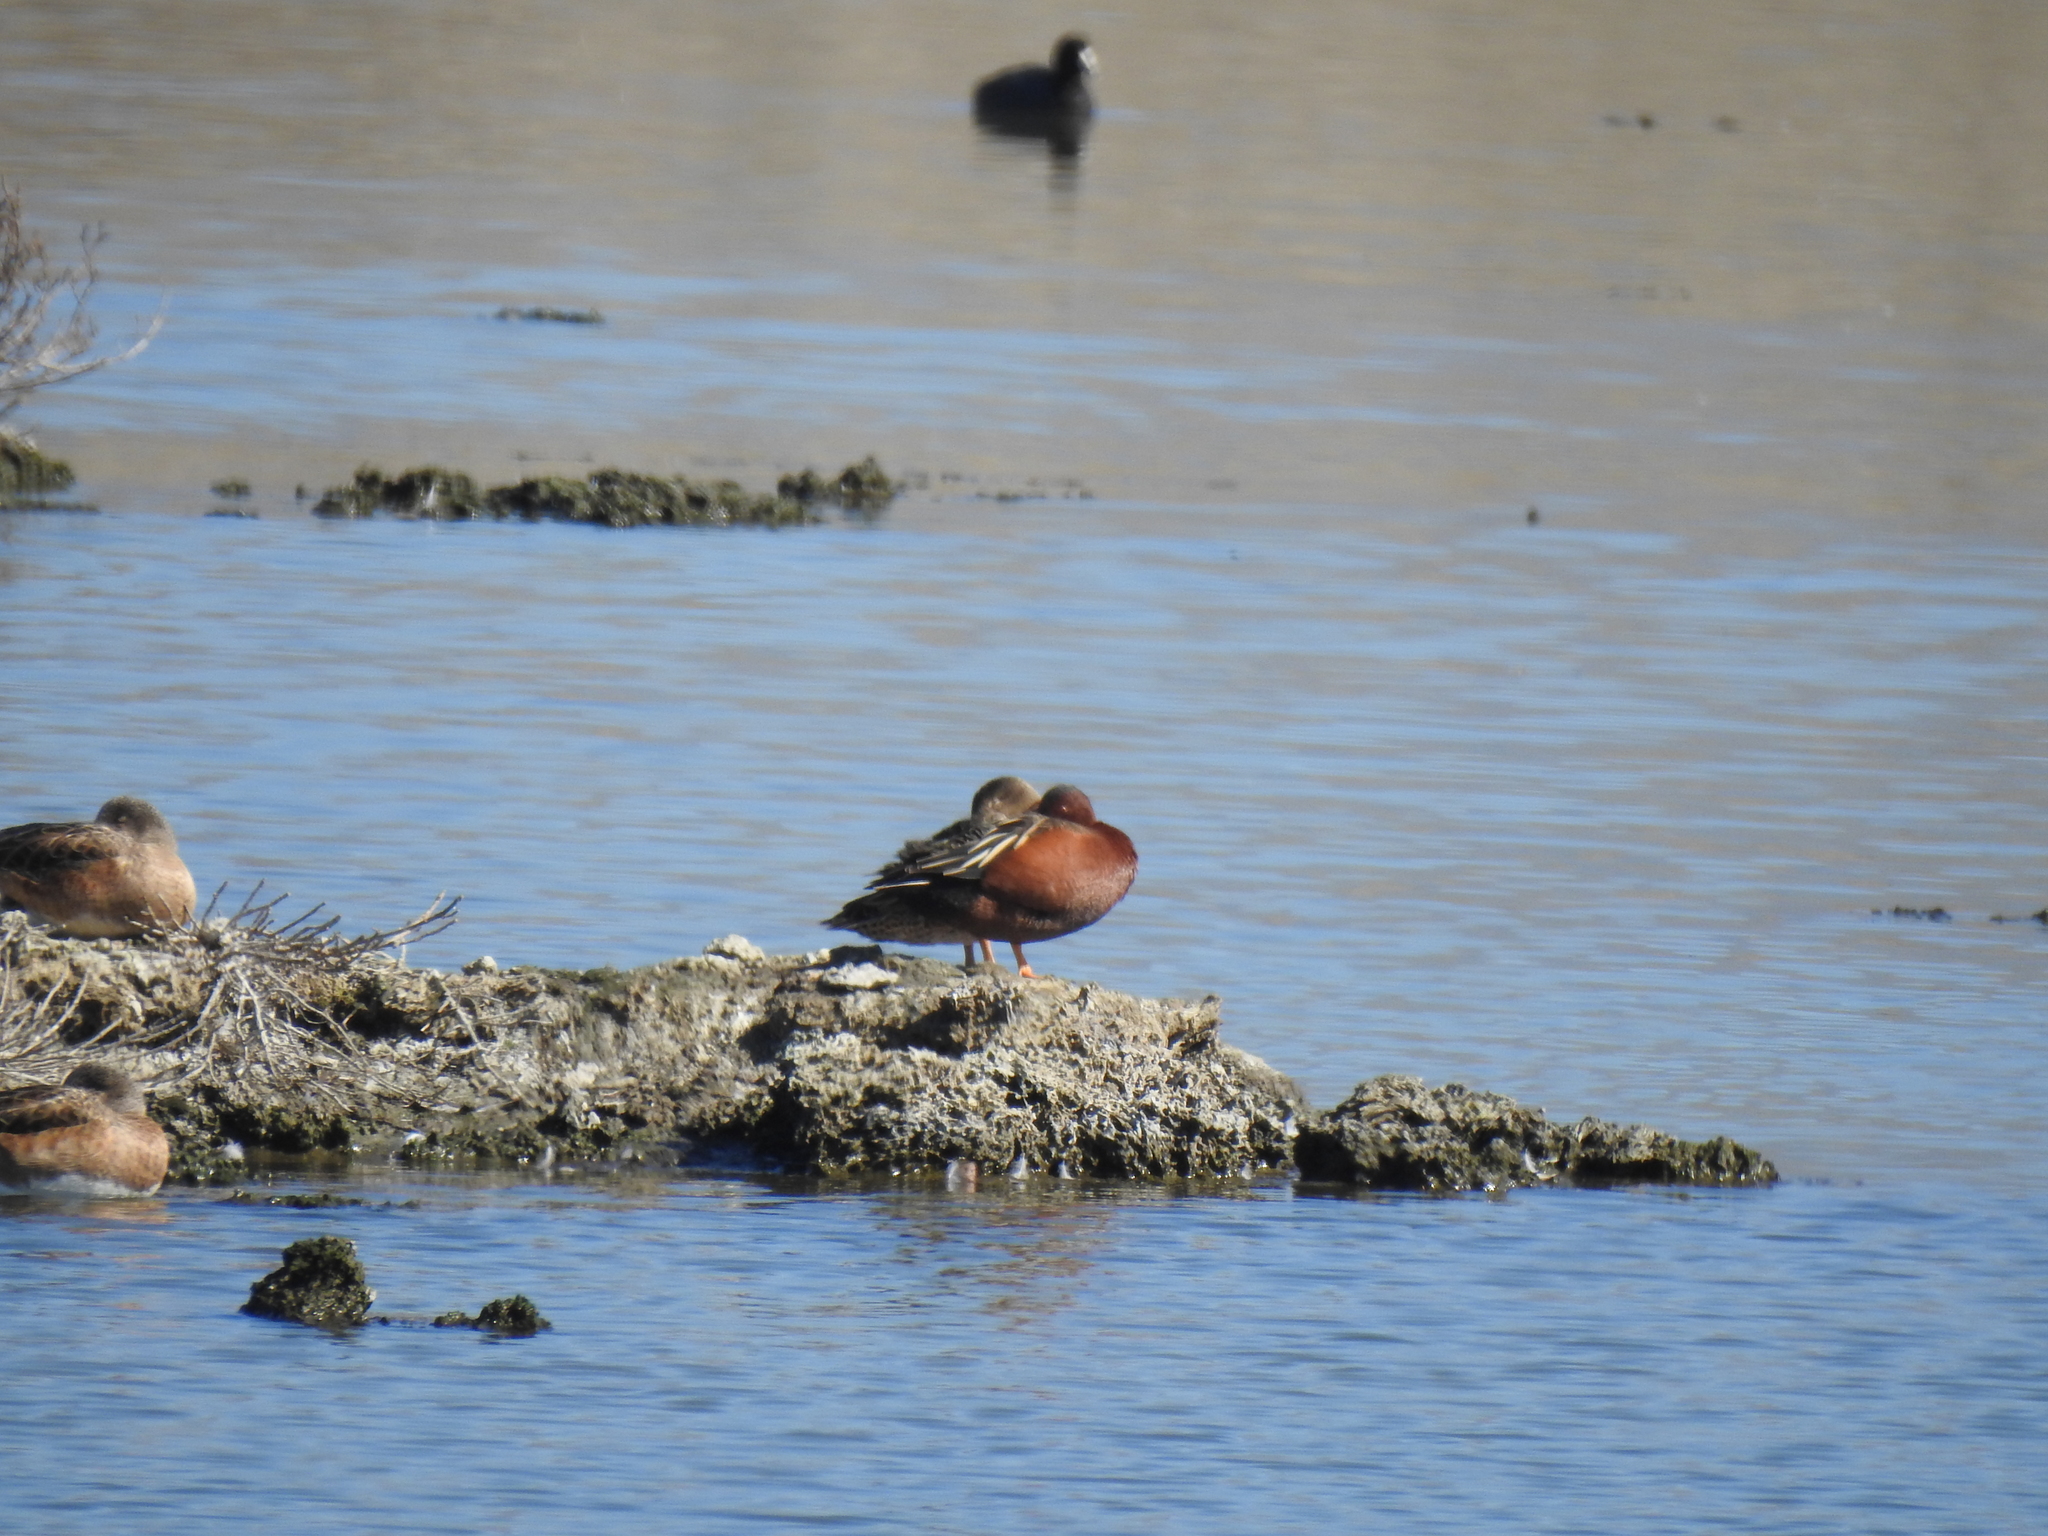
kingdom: Animalia
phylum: Chordata
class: Aves
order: Anseriformes
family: Anatidae
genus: Spatula
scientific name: Spatula cyanoptera
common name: Cinnamon teal
